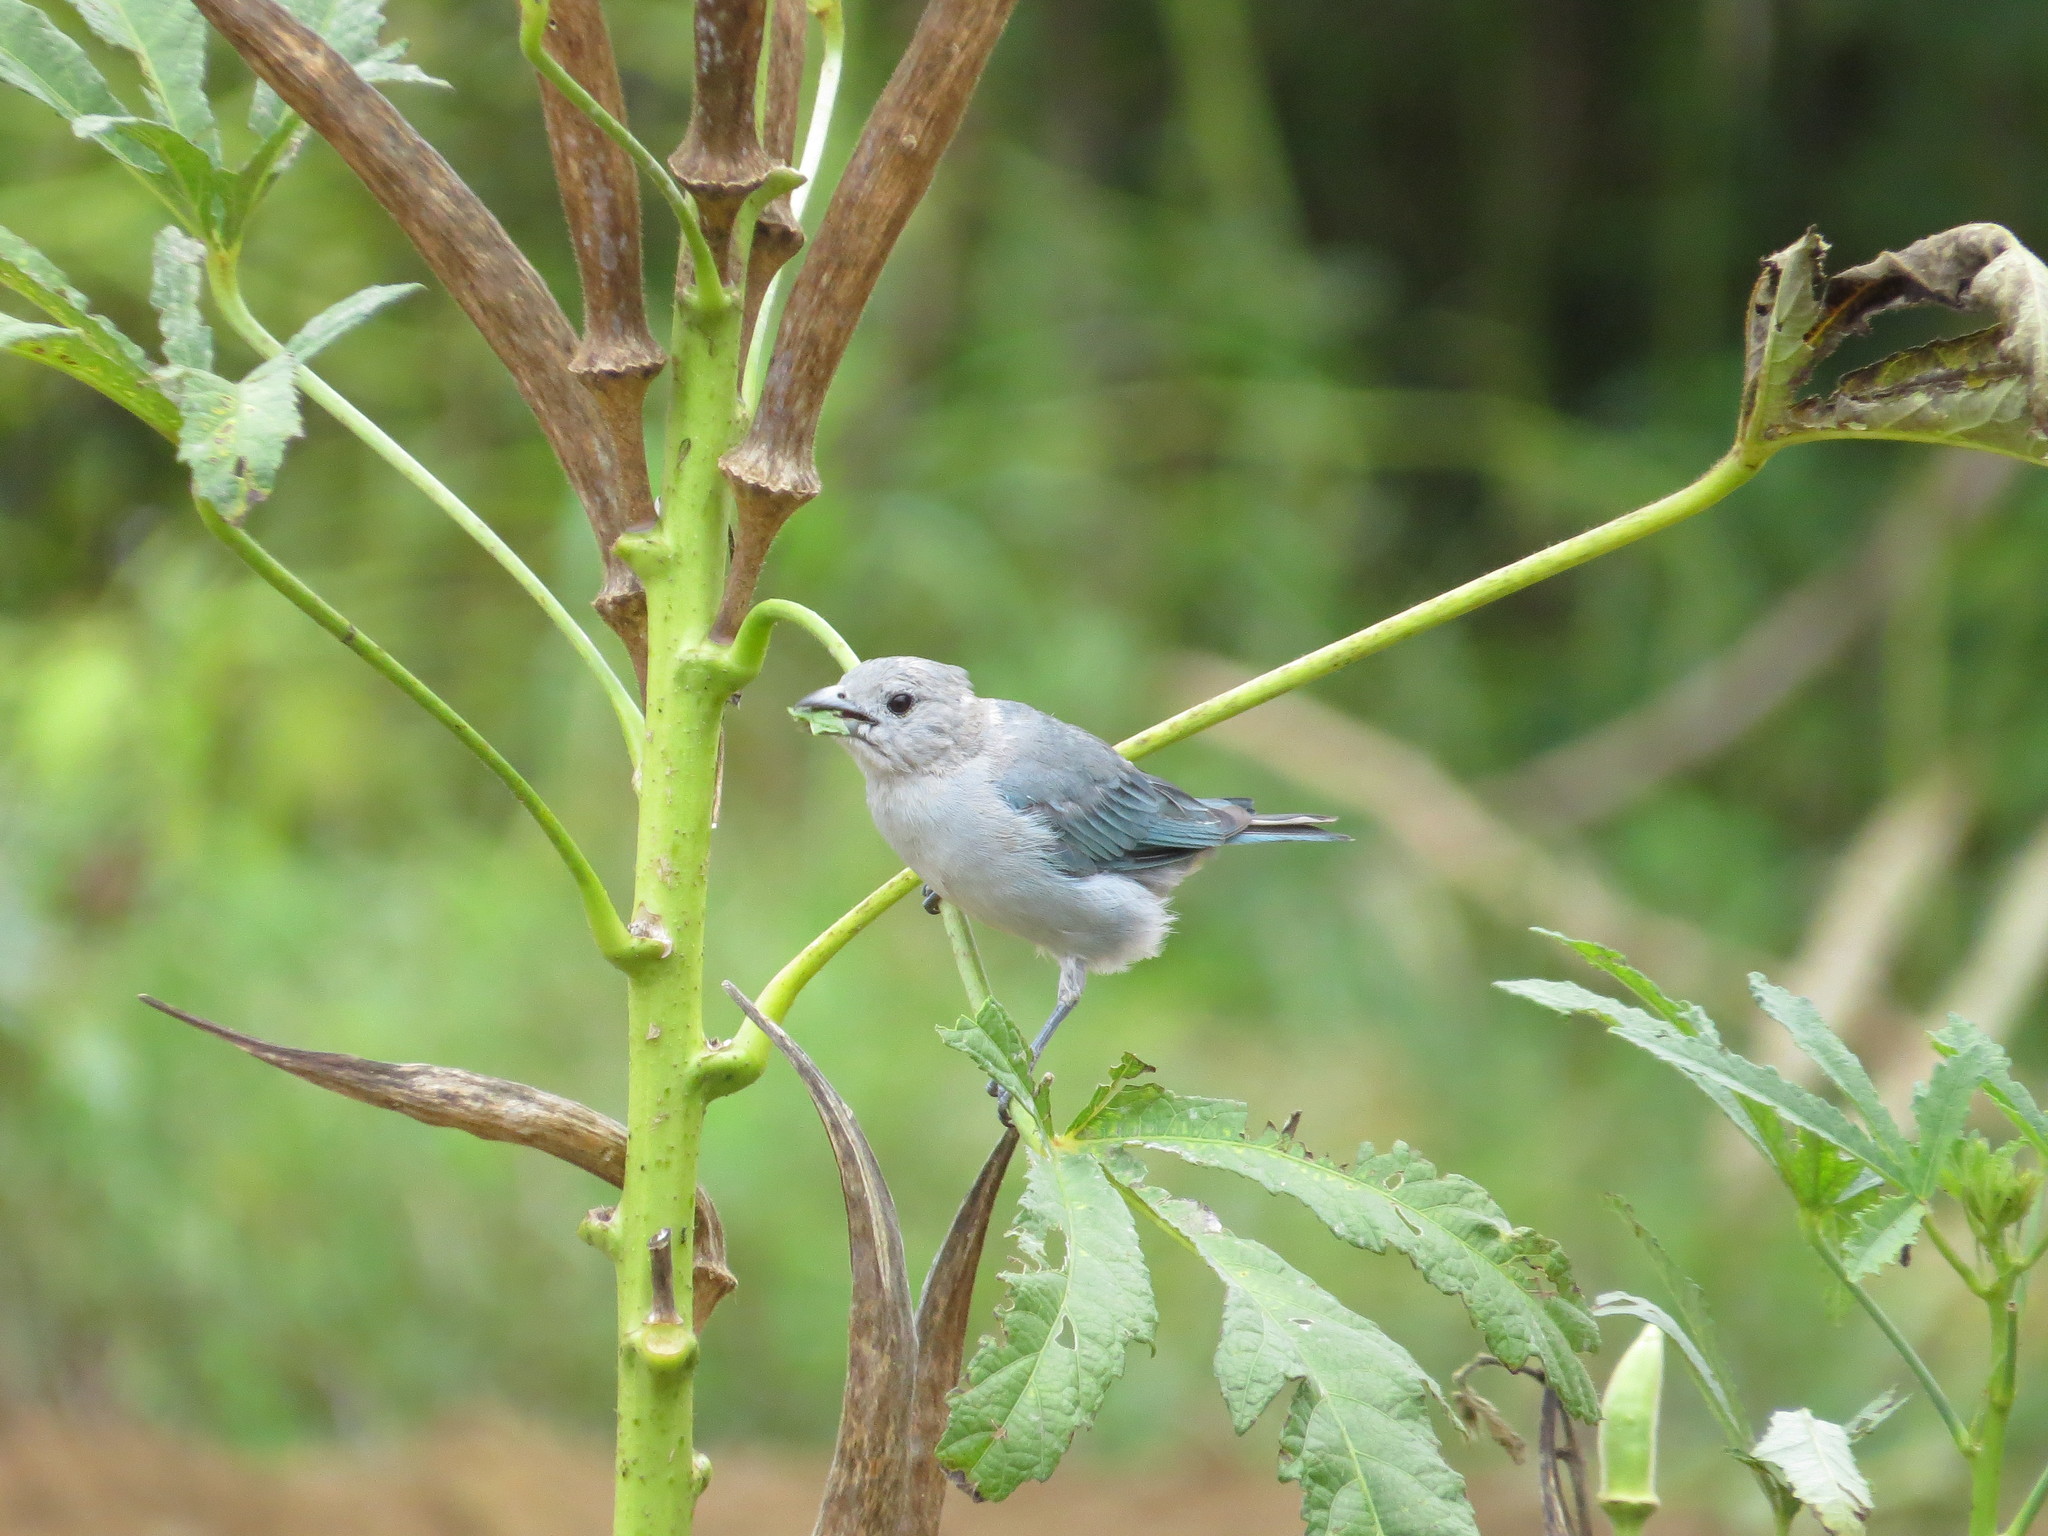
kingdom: Animalia
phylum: Chordata
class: Aves
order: Passeriformes
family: Thraupidae
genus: Thraupis
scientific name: Thraupis sayaca
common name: Sayaca tanager
